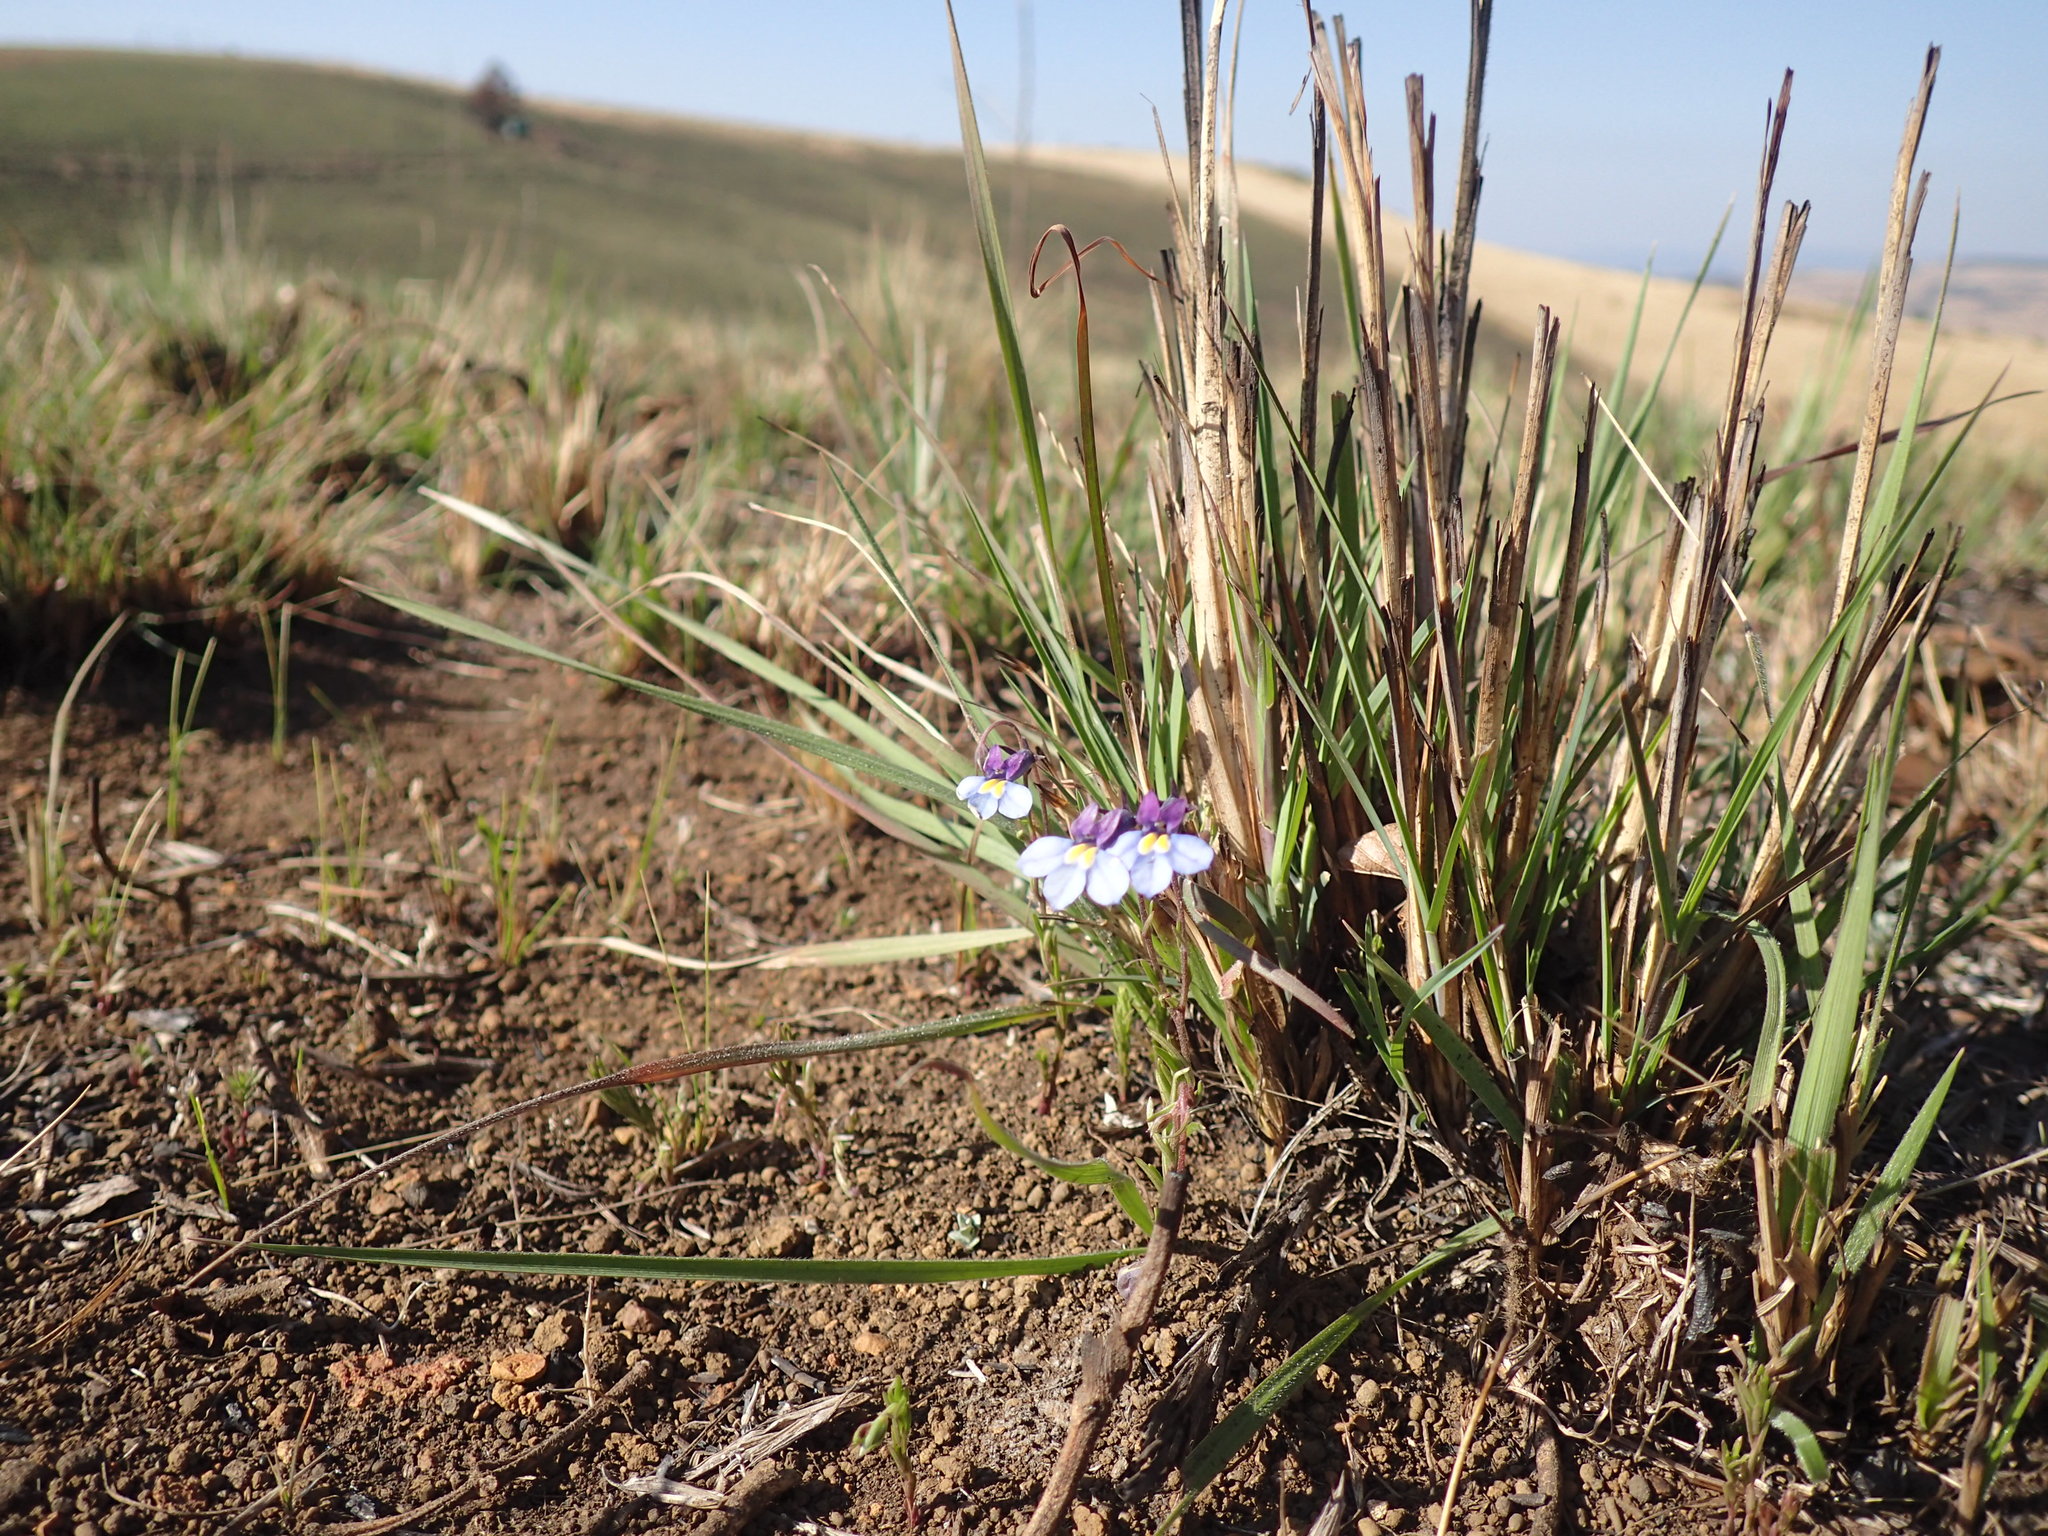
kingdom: Plantae
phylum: Tracheophyta
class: Magnoliopsida
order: Asterales
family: Campanulaceae
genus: Monopsis
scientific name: Monopsis decipiens
